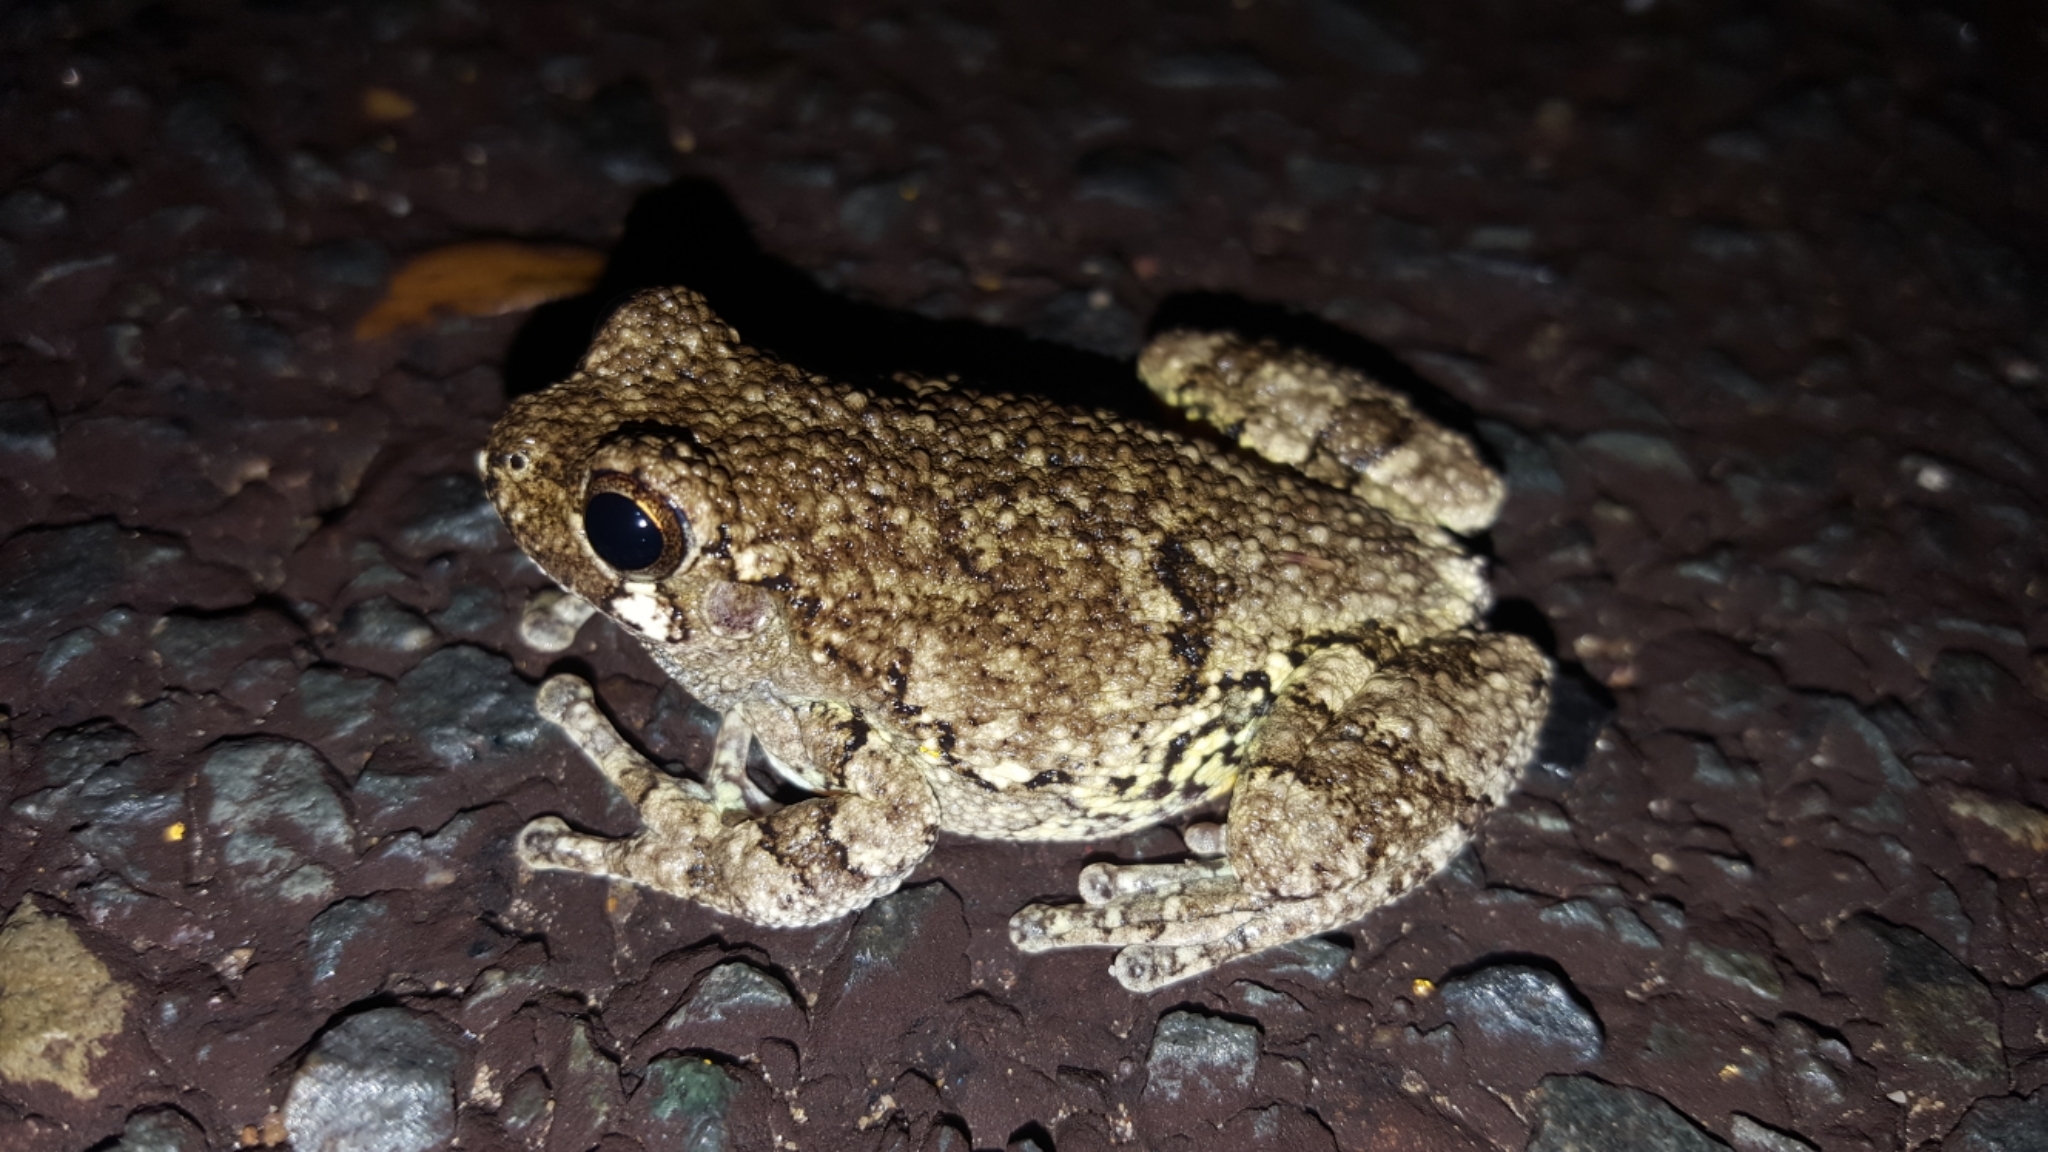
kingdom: Animalia
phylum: Chordata
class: Amphibia
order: Anura
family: Hylidae
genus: Dryophytes
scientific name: Dryophytes versicolor
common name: Gray treefrog
